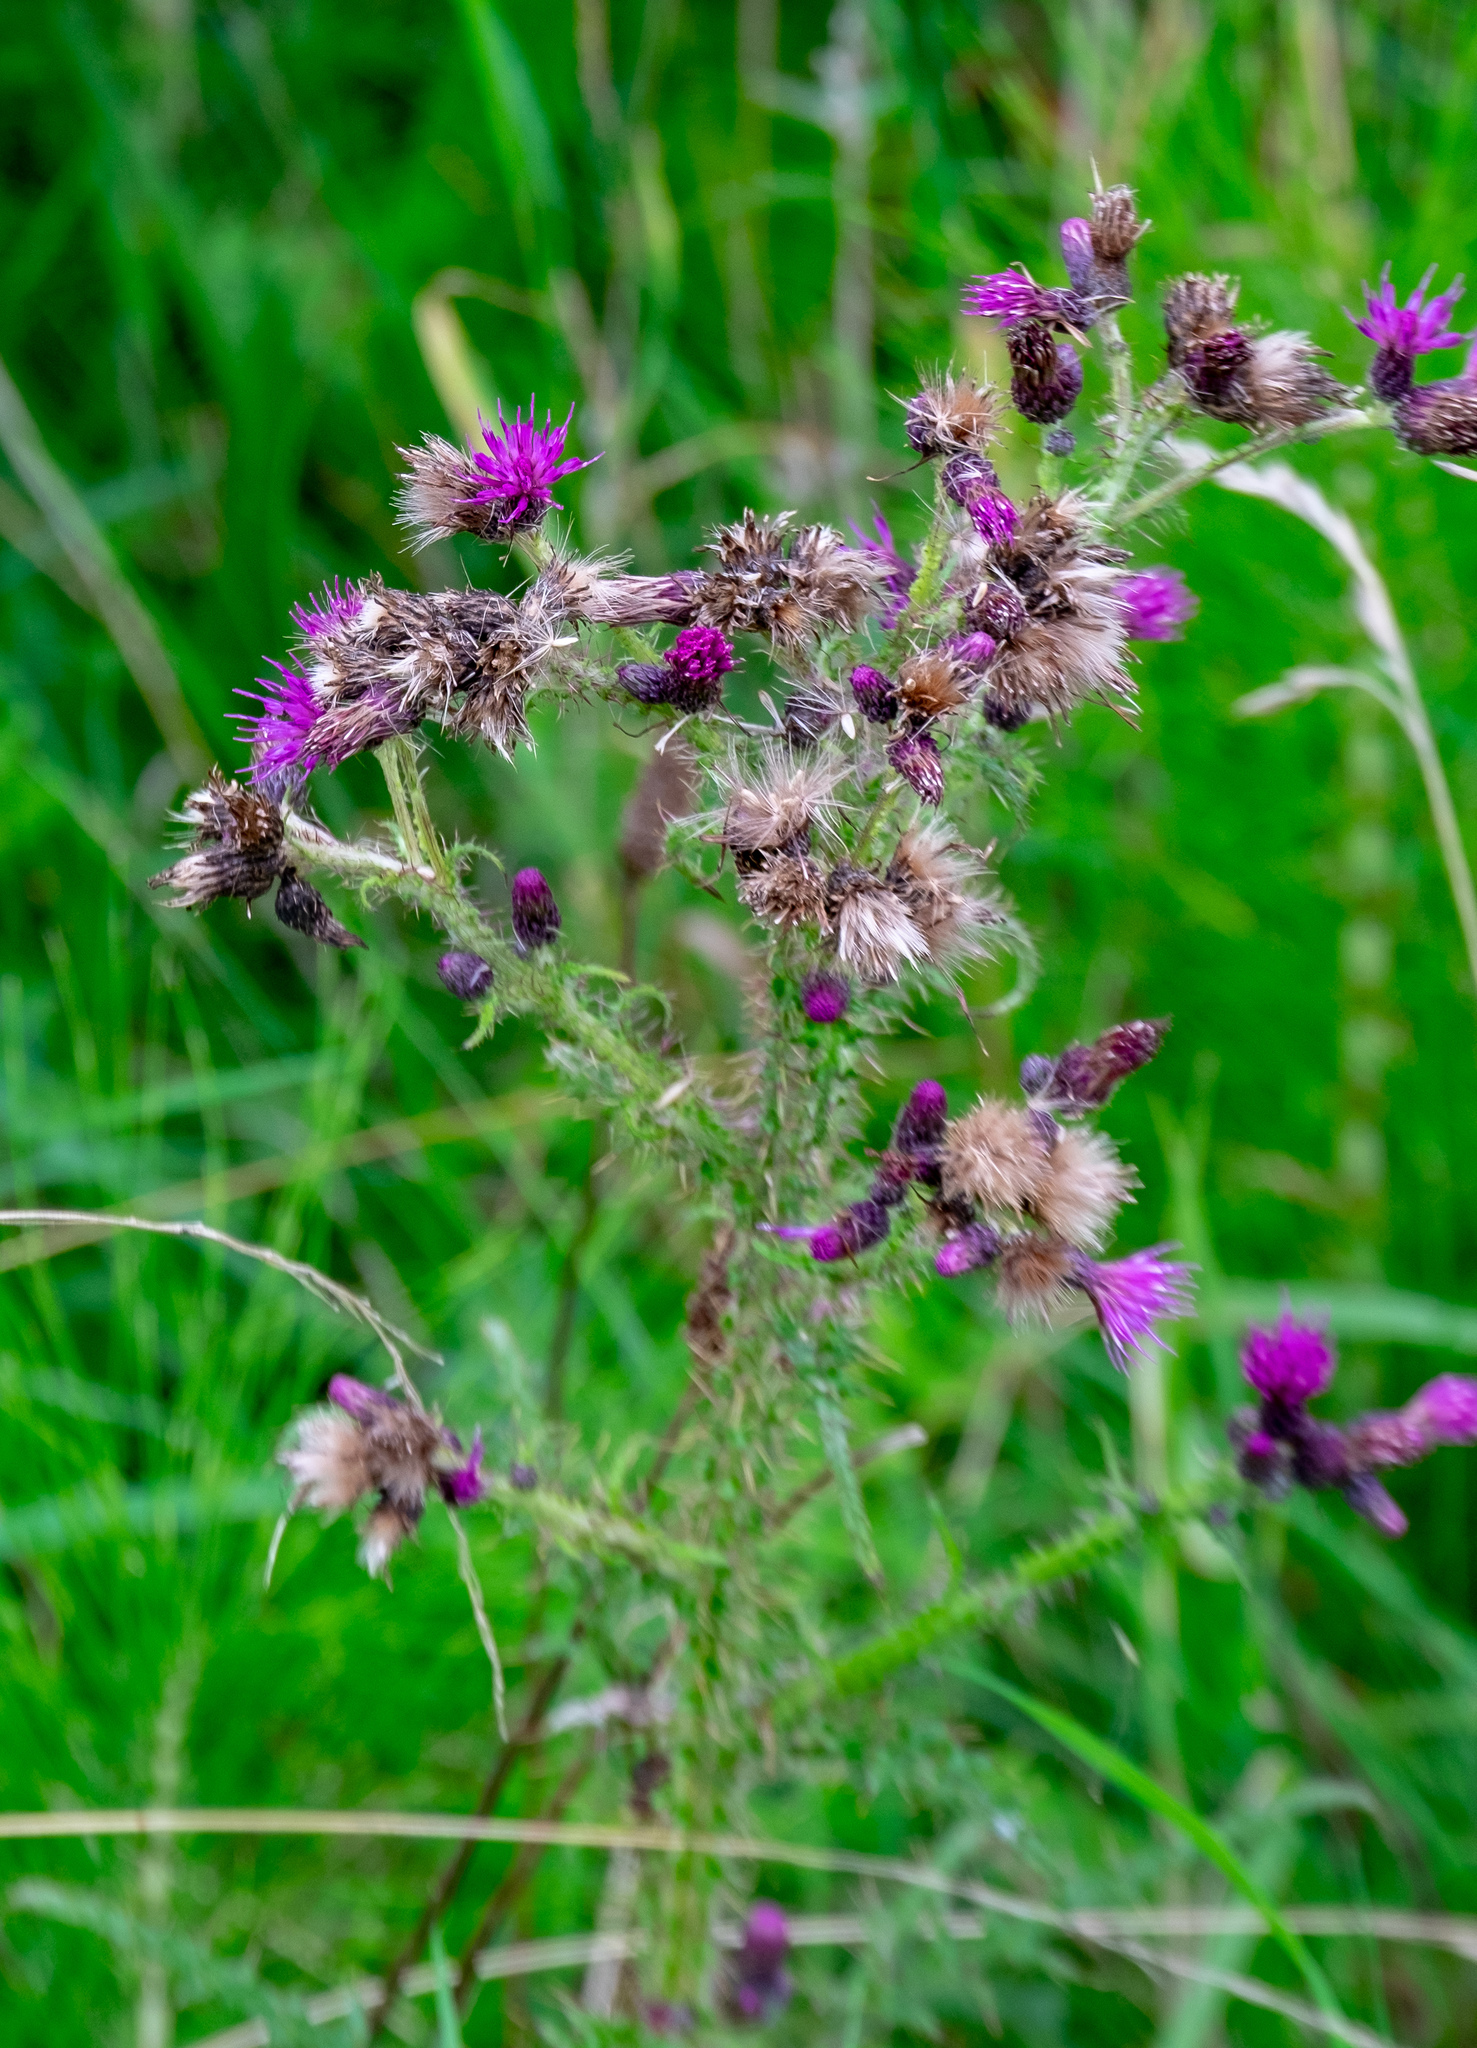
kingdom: Plantae
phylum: Tracheophyta
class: Magnoliopsida
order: Asterales
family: Asteraceae
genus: Cirsium
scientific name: Cirsium palustre
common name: Marsh thistle
